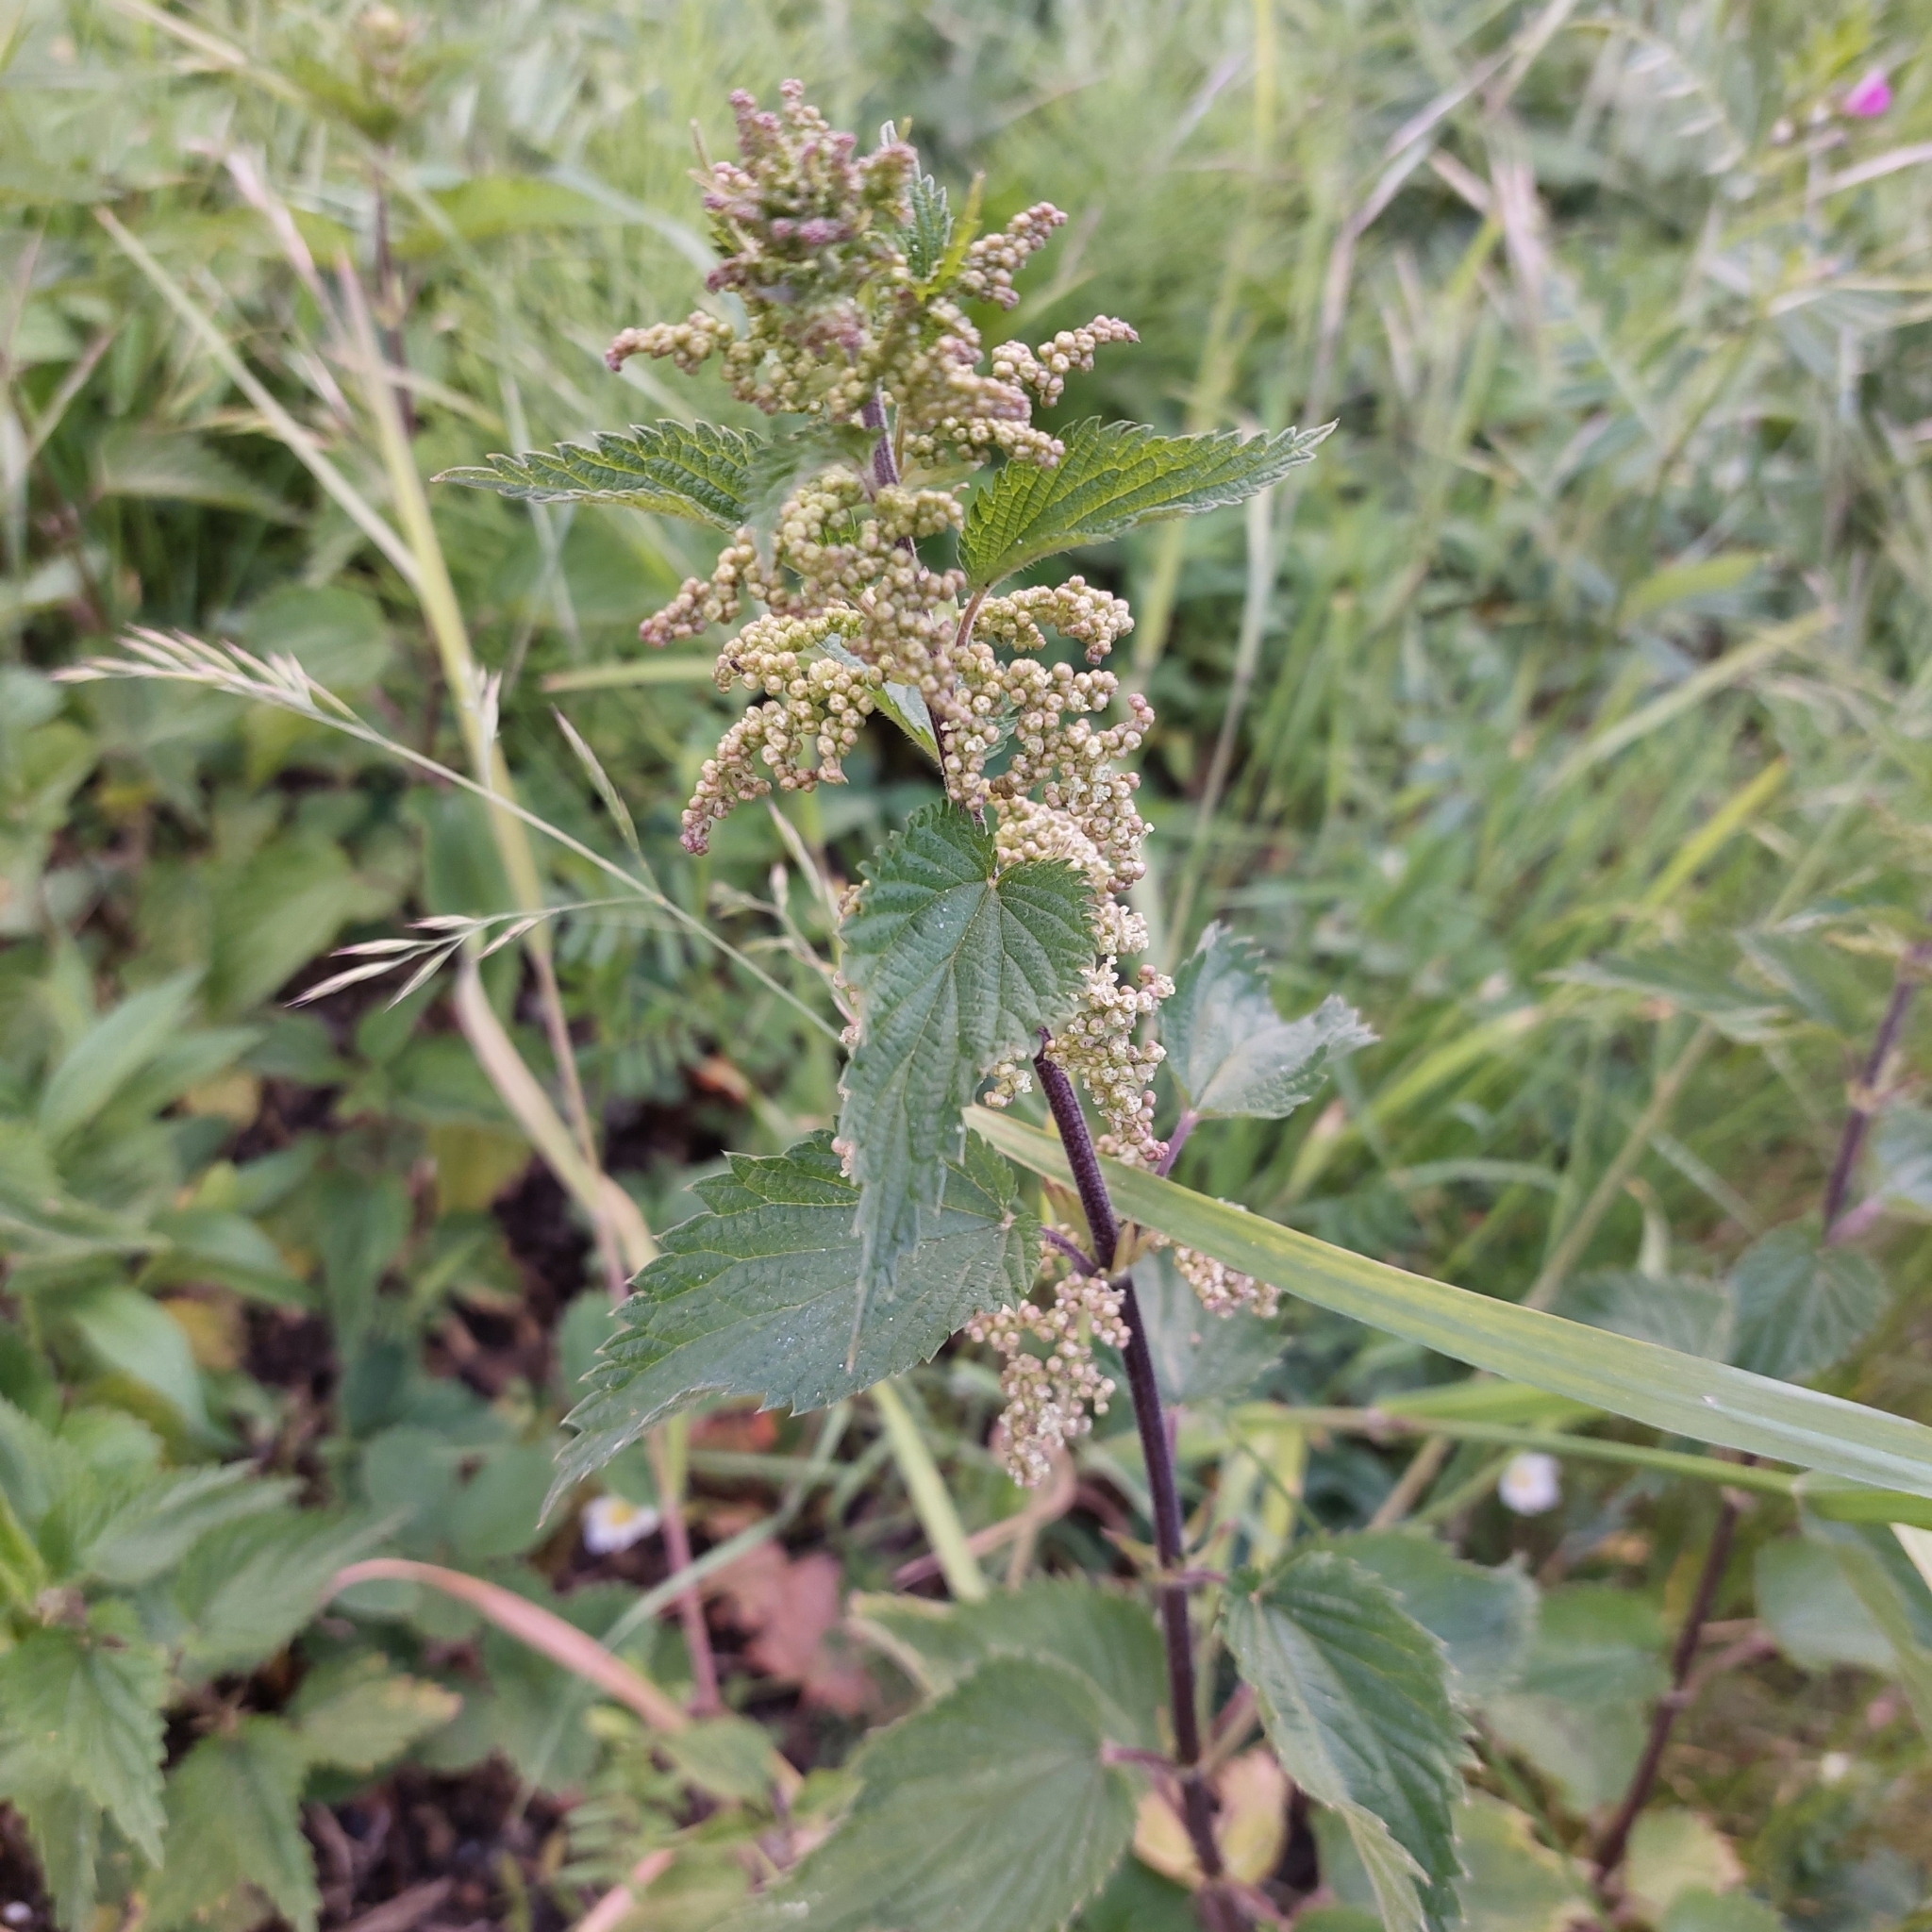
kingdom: Plantae
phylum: Tracheophyta
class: Magnoliopsida
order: Rosales
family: Urticaceae
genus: Urtica
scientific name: Urtica dioica
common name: Common nettle
